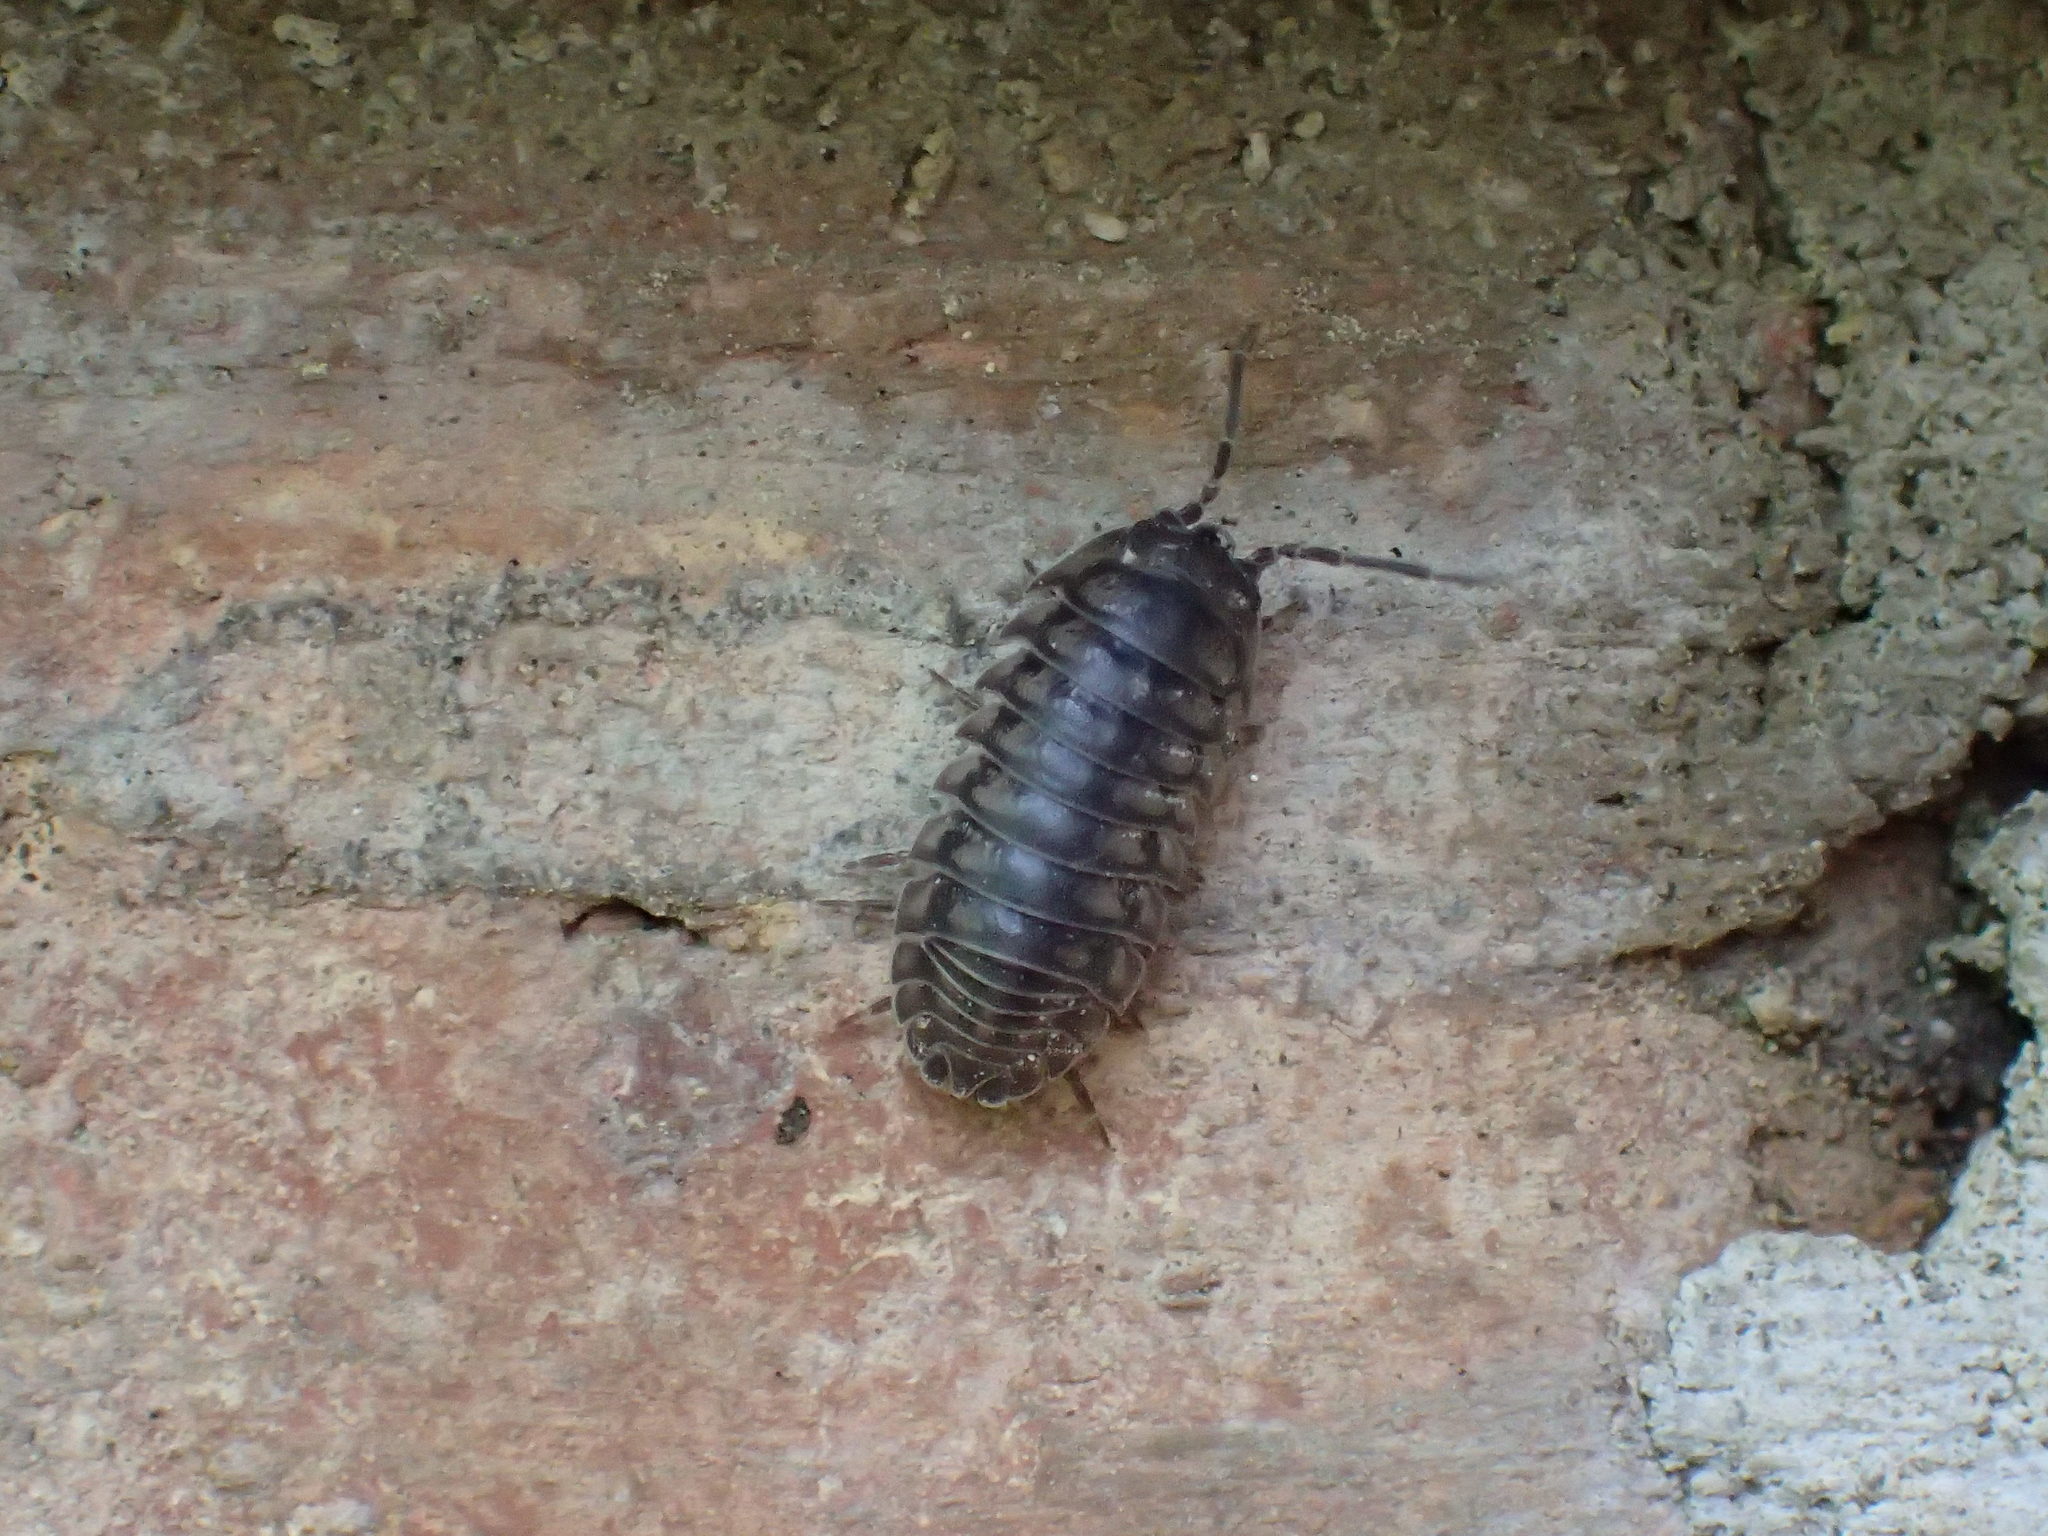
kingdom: Animalia
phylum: Arthropoda
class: Malacostraca
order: Isopoda
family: Armadillidiidae
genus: Armadillidium
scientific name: Armadillidium nasatum
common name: Isopod
